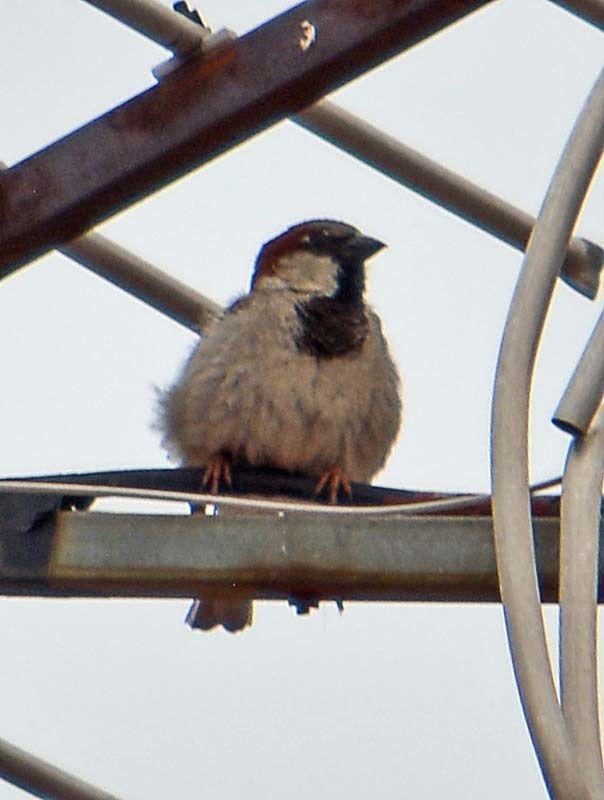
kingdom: Animalia
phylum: Chordata
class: Aves
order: Passeriformes
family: Passeridae
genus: Passer
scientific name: Passer domesticus
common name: House sparrow
